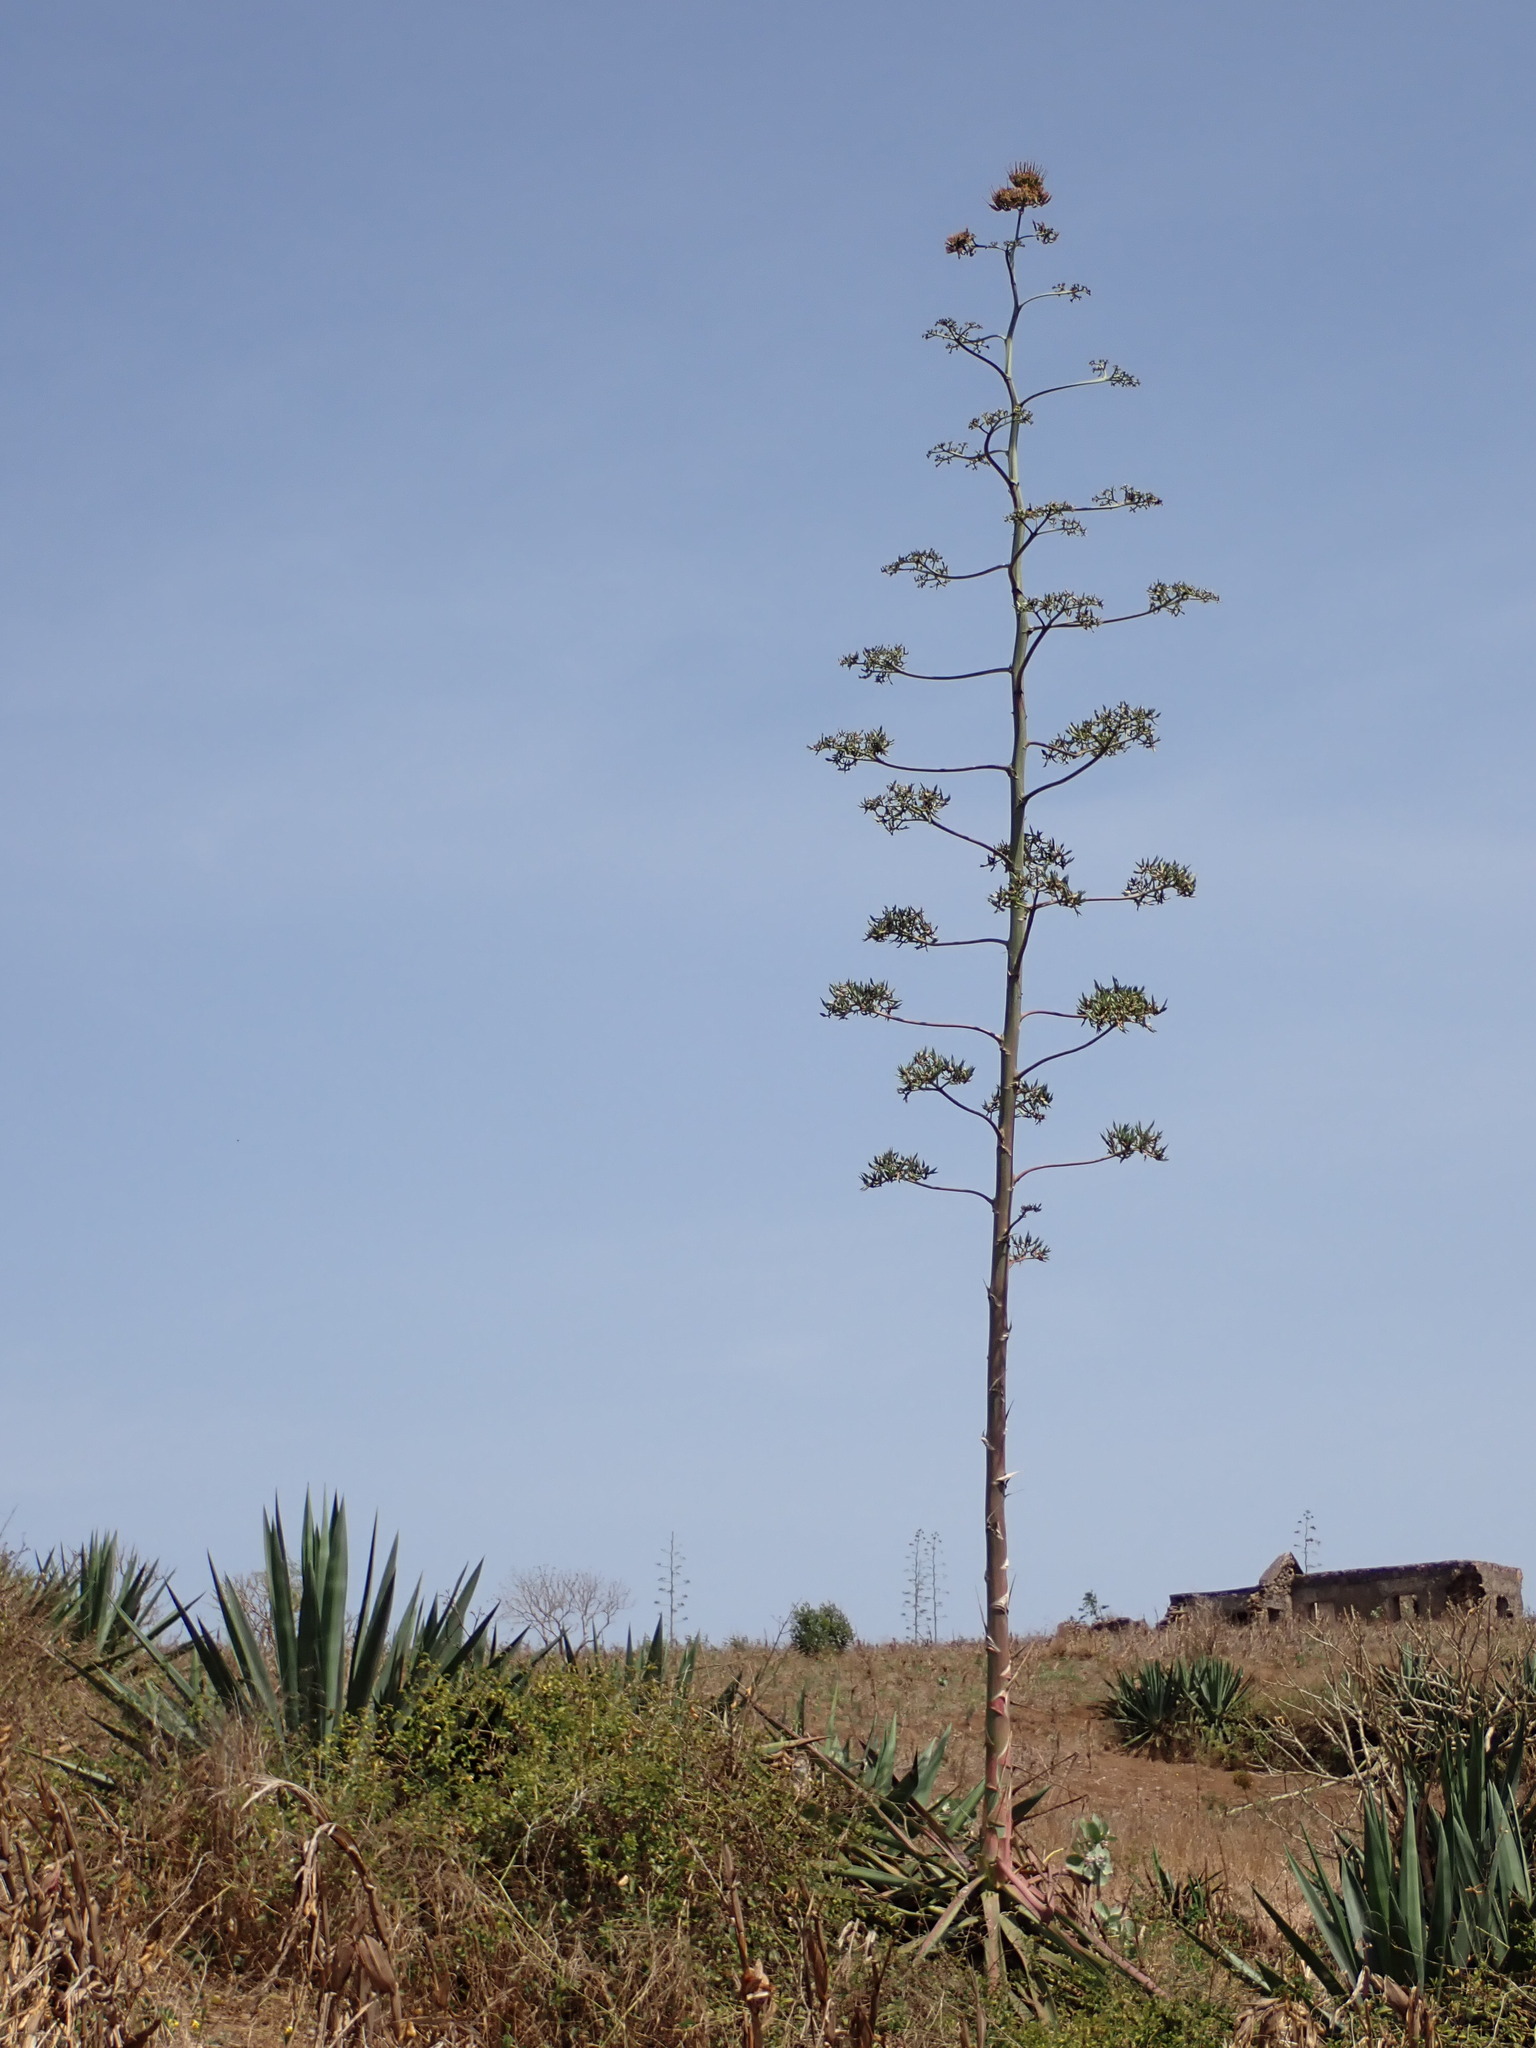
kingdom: Plantae
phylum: Tracheophyta
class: Liliopsida
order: Asparagales
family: Asparagaceae
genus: Furcraea
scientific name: Furcraea foetida
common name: Mauritius hemp
